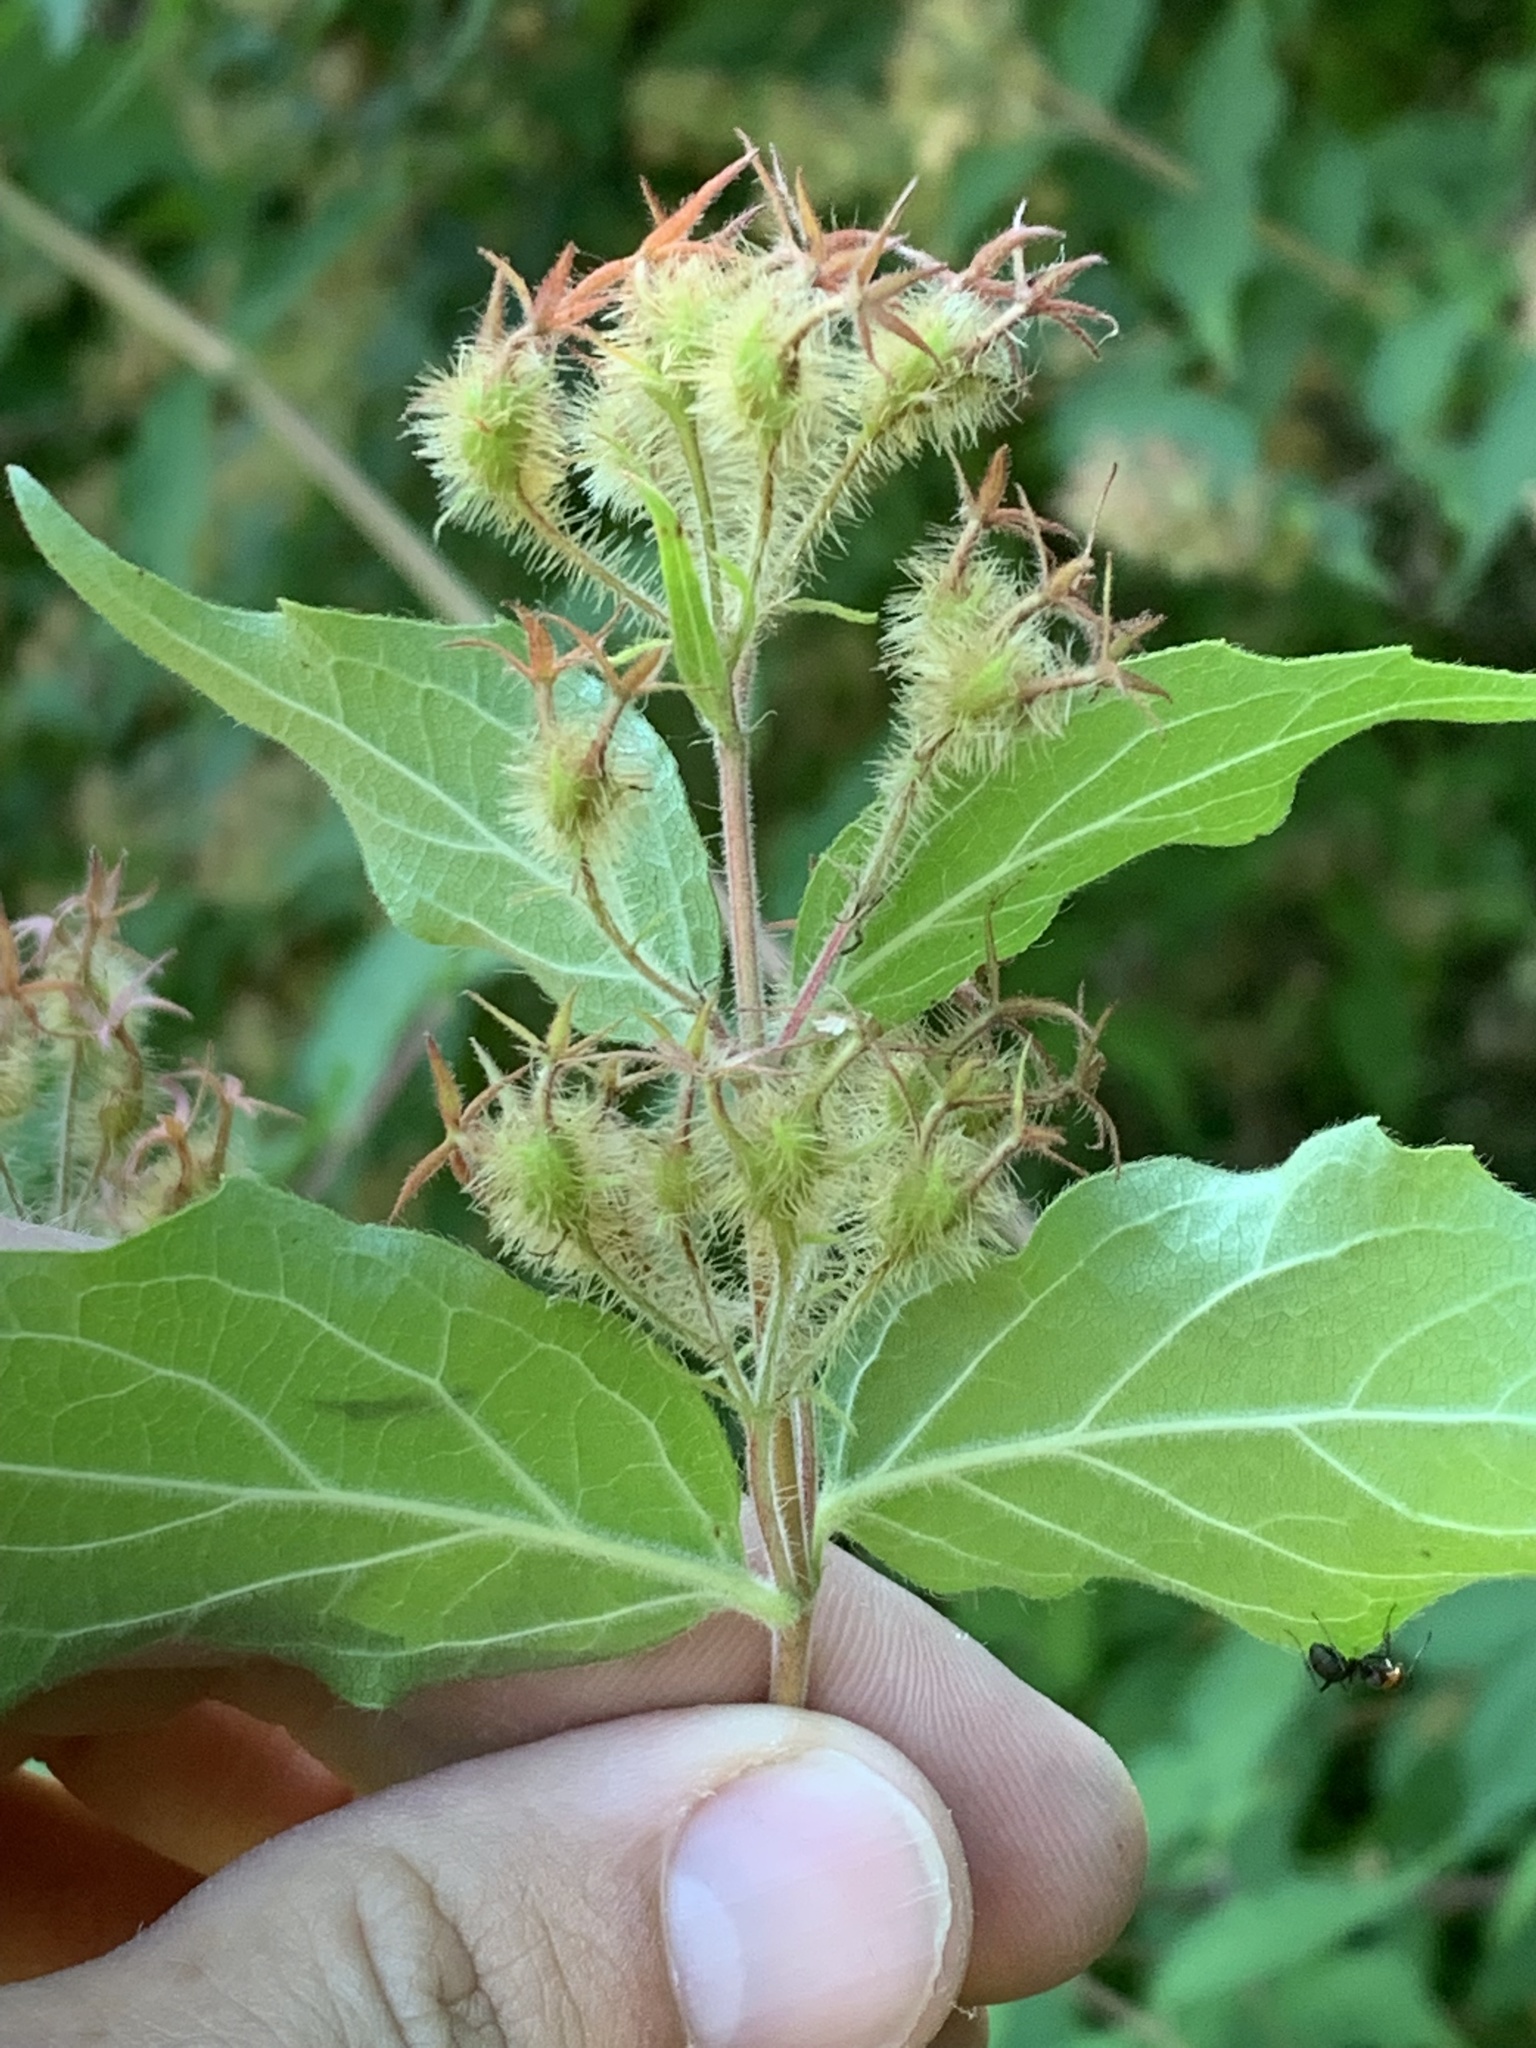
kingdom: Plantae
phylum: Tracheophyta
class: Magnoliopsida
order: Dipsacales
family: Caprifoliaceae
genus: Kolkwitzia
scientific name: Kolkwitzia amabilis
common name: Beautybush
